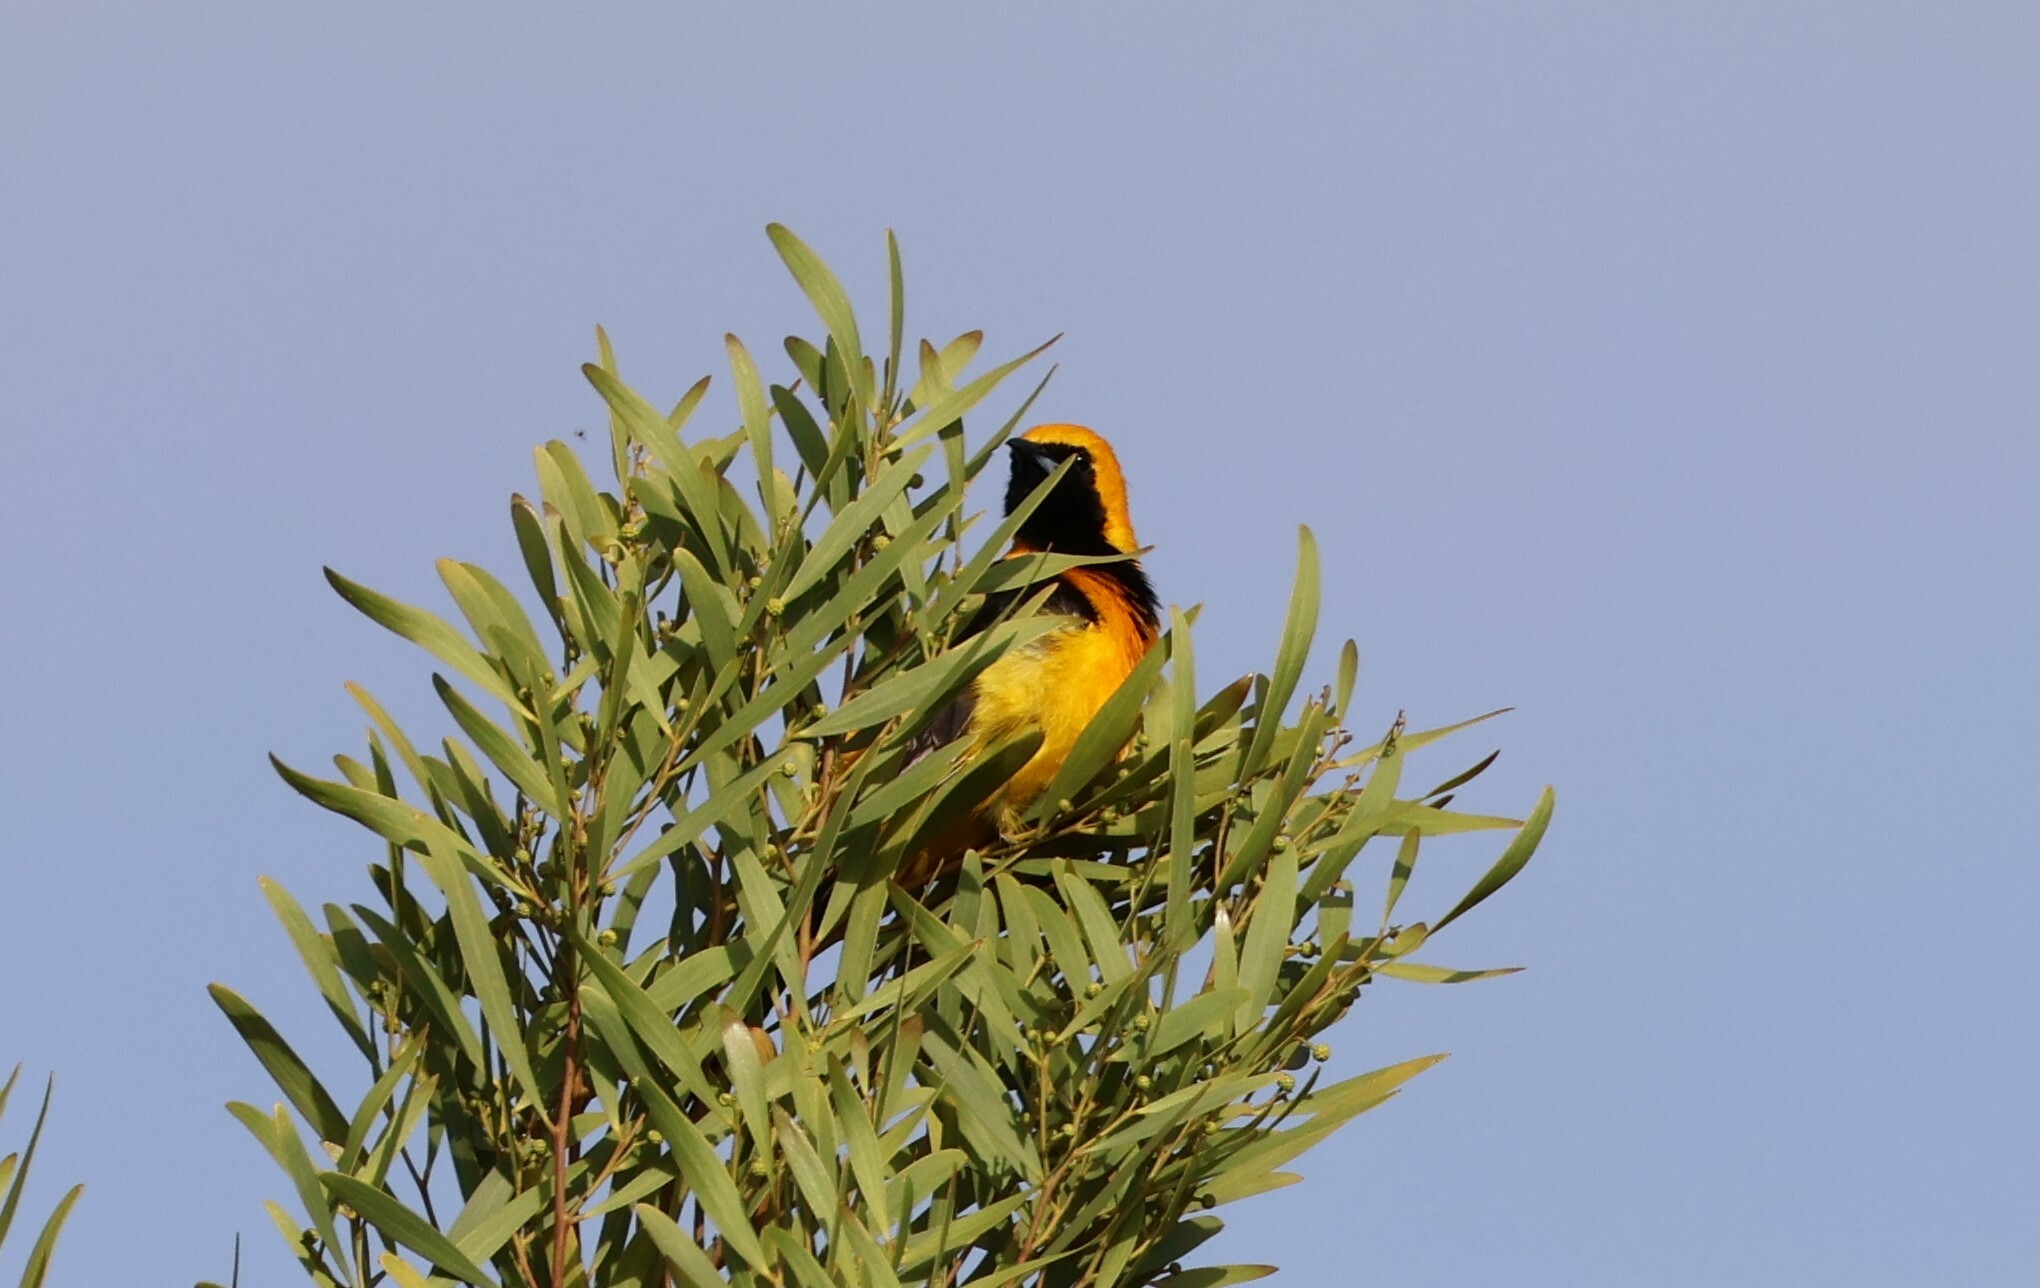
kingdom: Animalia
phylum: Chordata
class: Aves
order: Passeriformes
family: Icteridae
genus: Icterus
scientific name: Icterus cucullatus
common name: Hooded oriole
